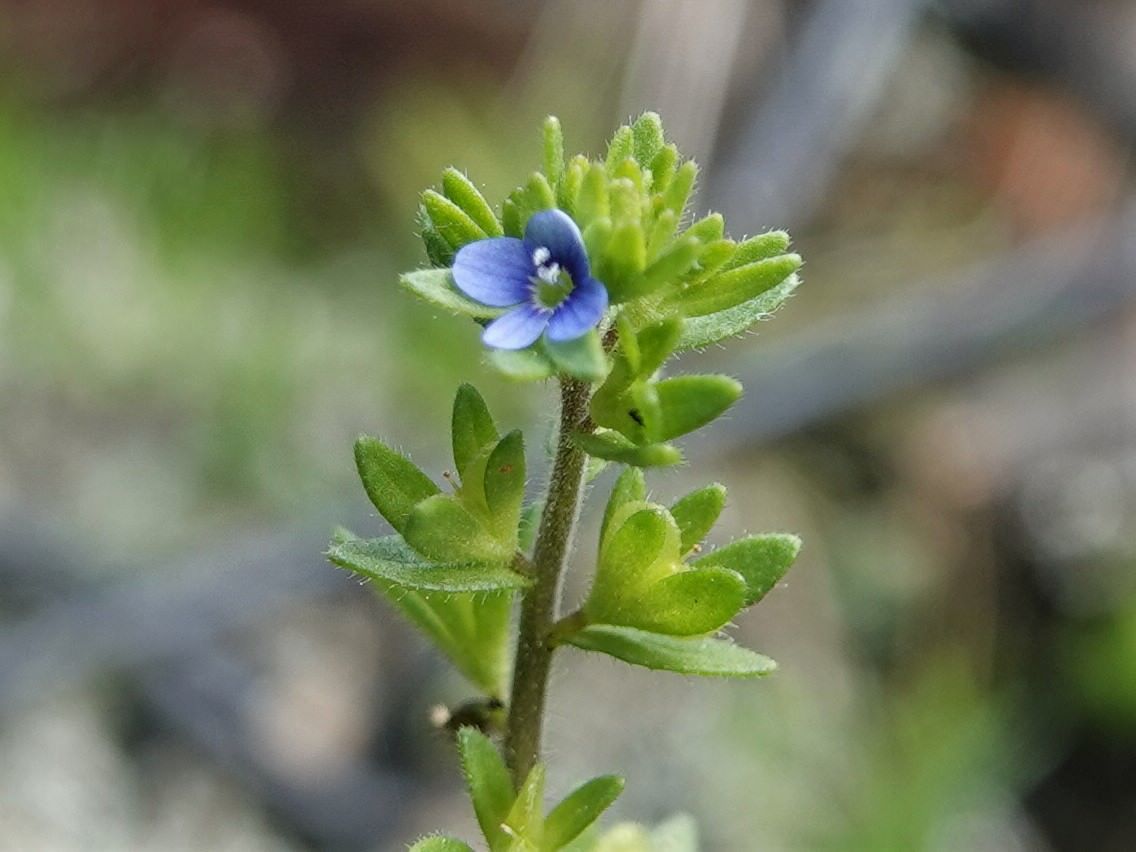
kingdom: Plantae
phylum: Tracheophyta
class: Magnoliopsida
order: Lamiales
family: Plantaginaceae
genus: Veronica
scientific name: Veronica arvensis
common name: Corn speedwell
